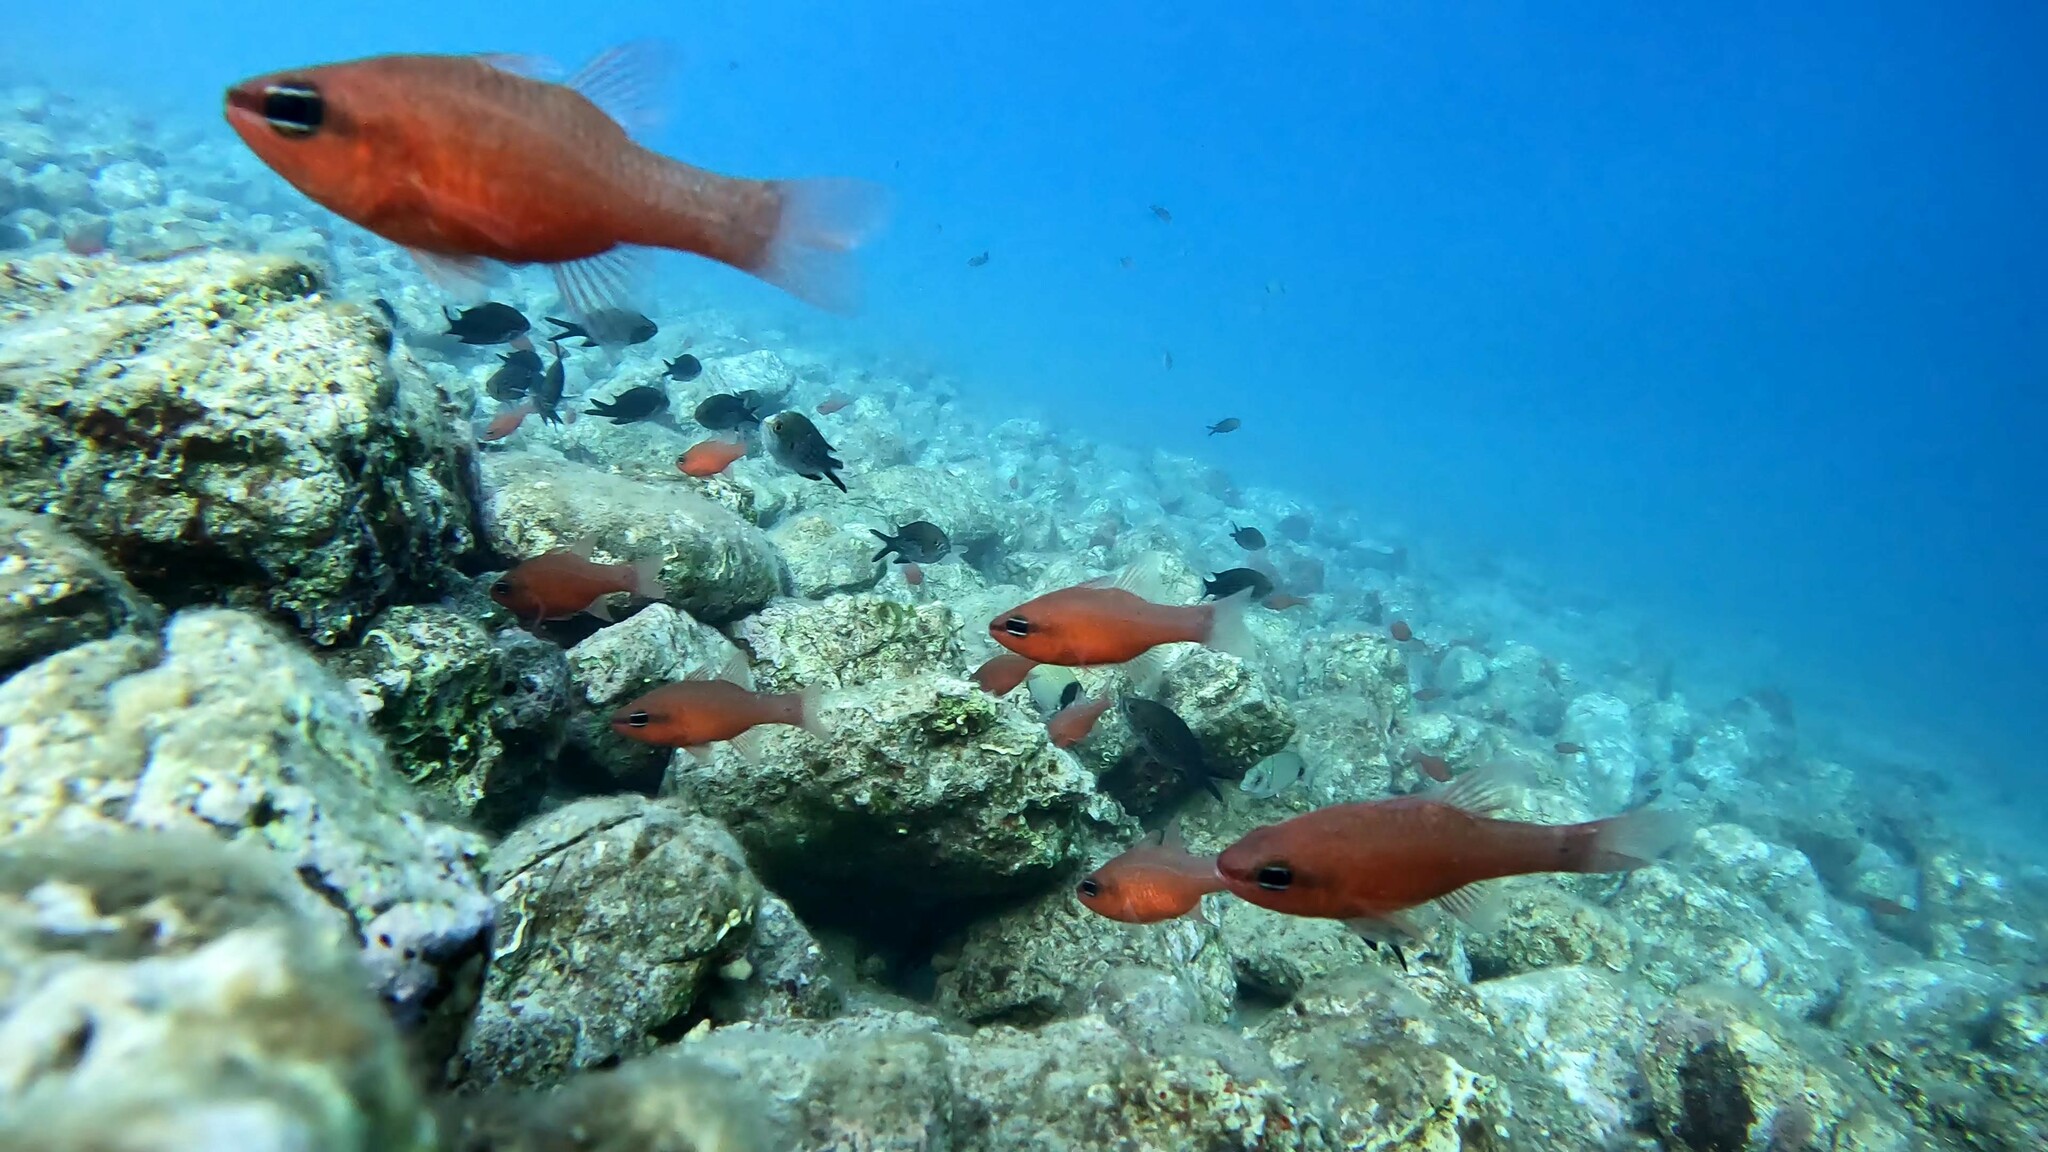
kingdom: Animalia
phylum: Chordata
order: Perciformes
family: Apogonidae
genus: Apogon
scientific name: Apogon imberbis
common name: Cardinal fish
